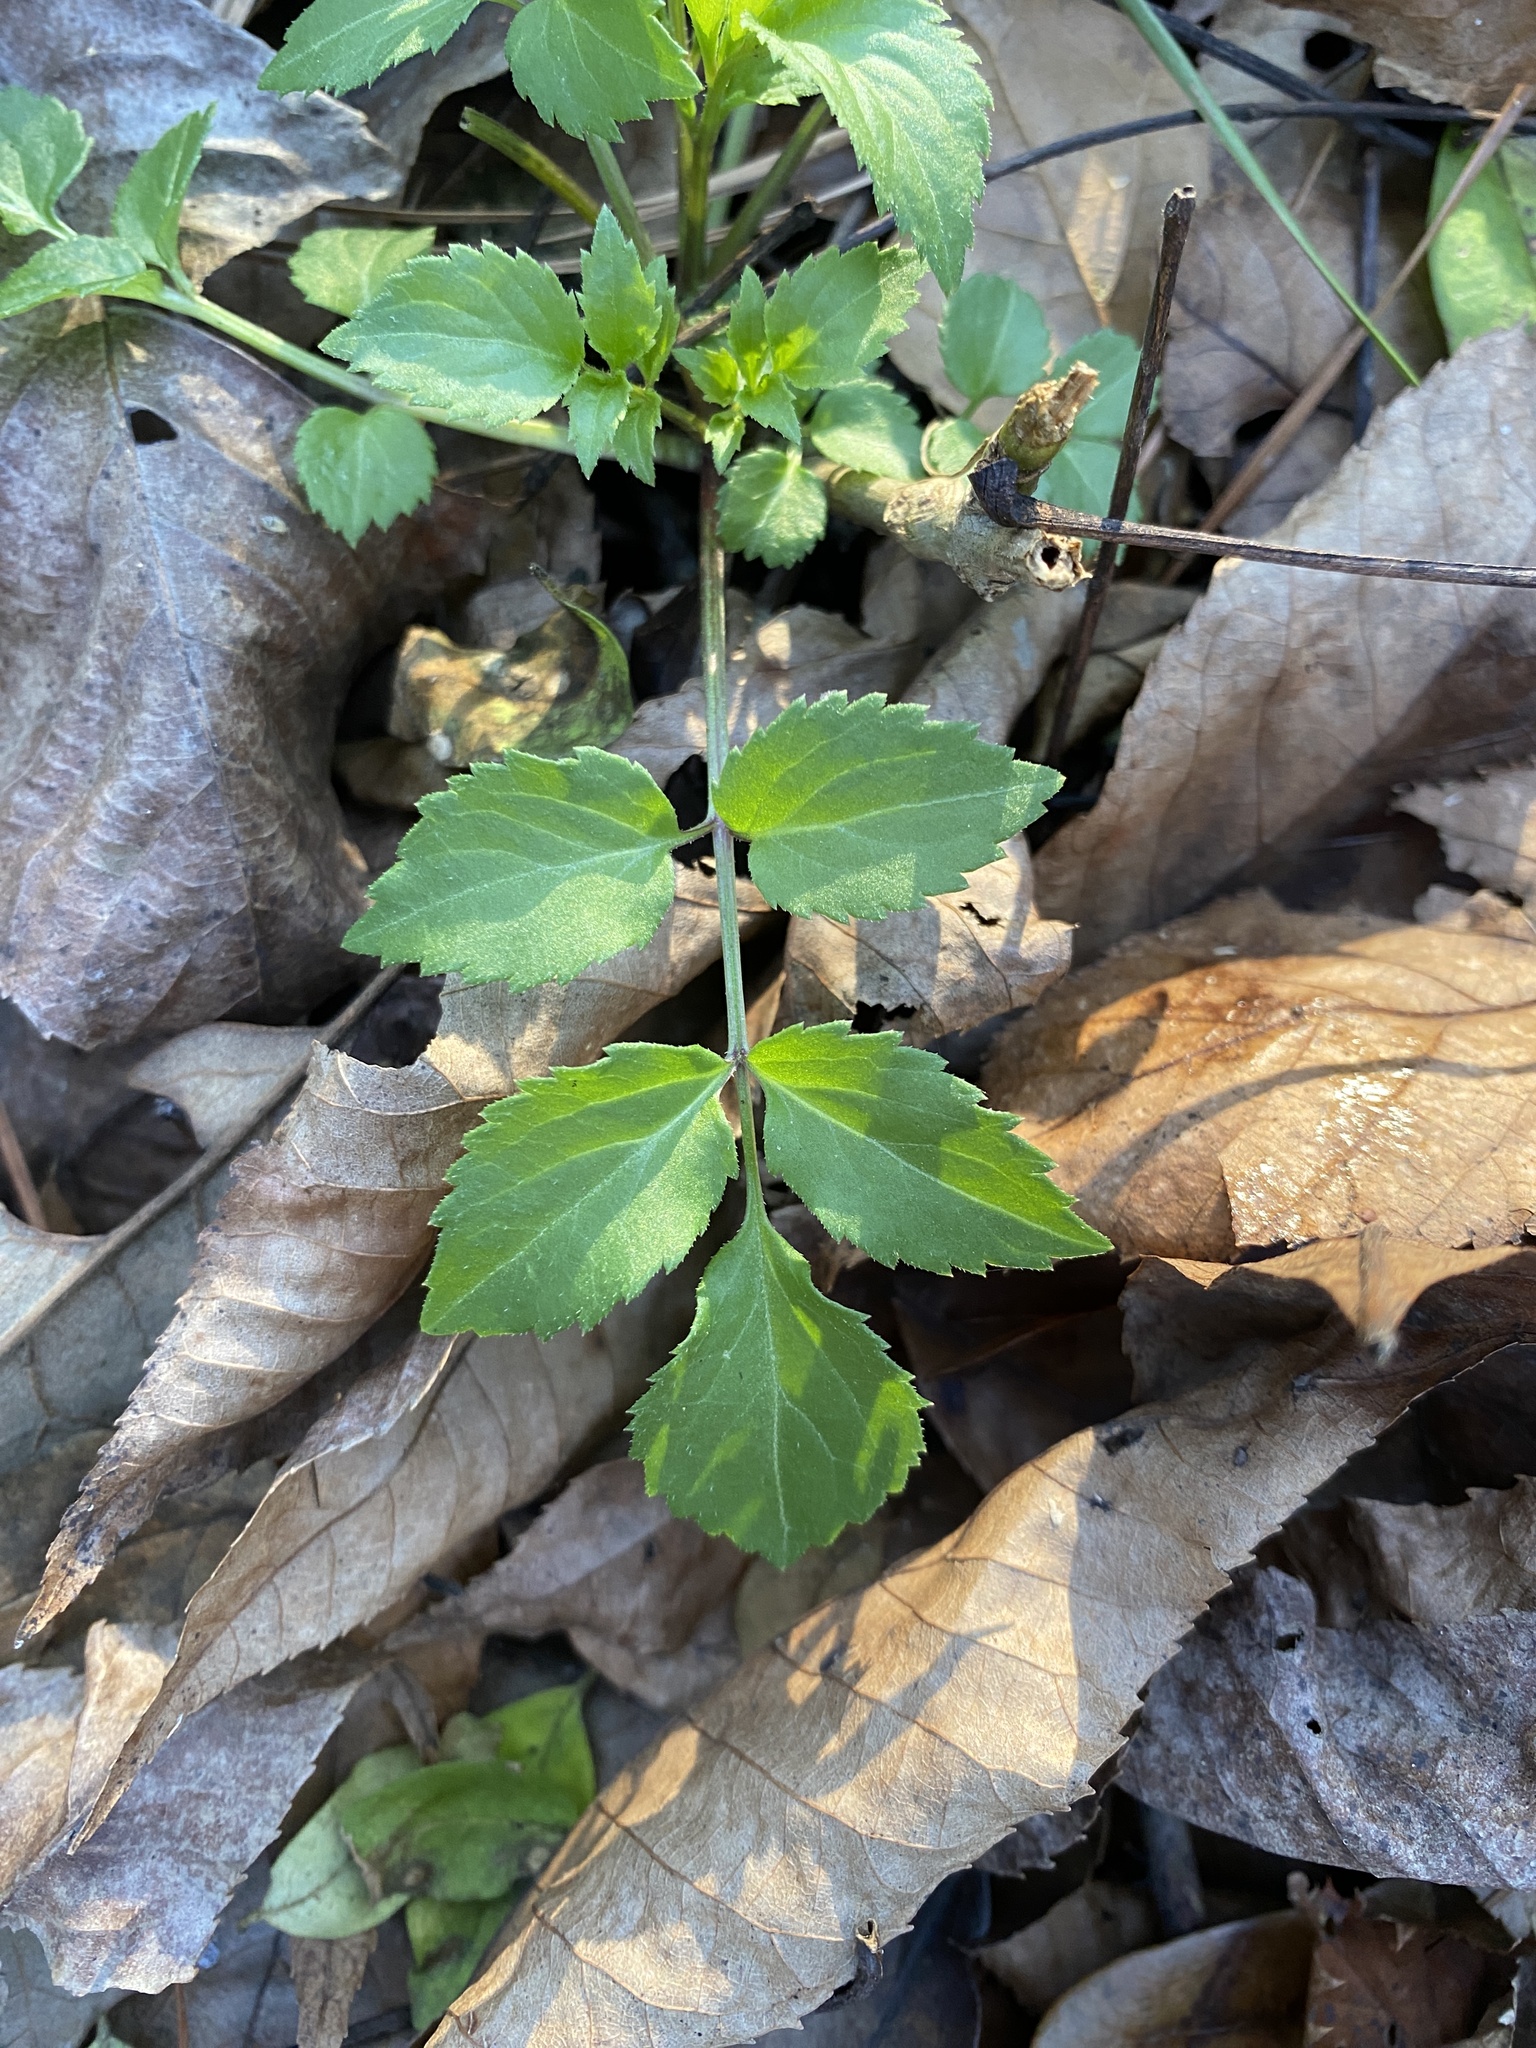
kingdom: Plantae
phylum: Tracheophyta
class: Magnoliopsida
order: Dipsacales
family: Viburnaceae
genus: Sambucus
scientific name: Sambucus canadensis
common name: American elder
